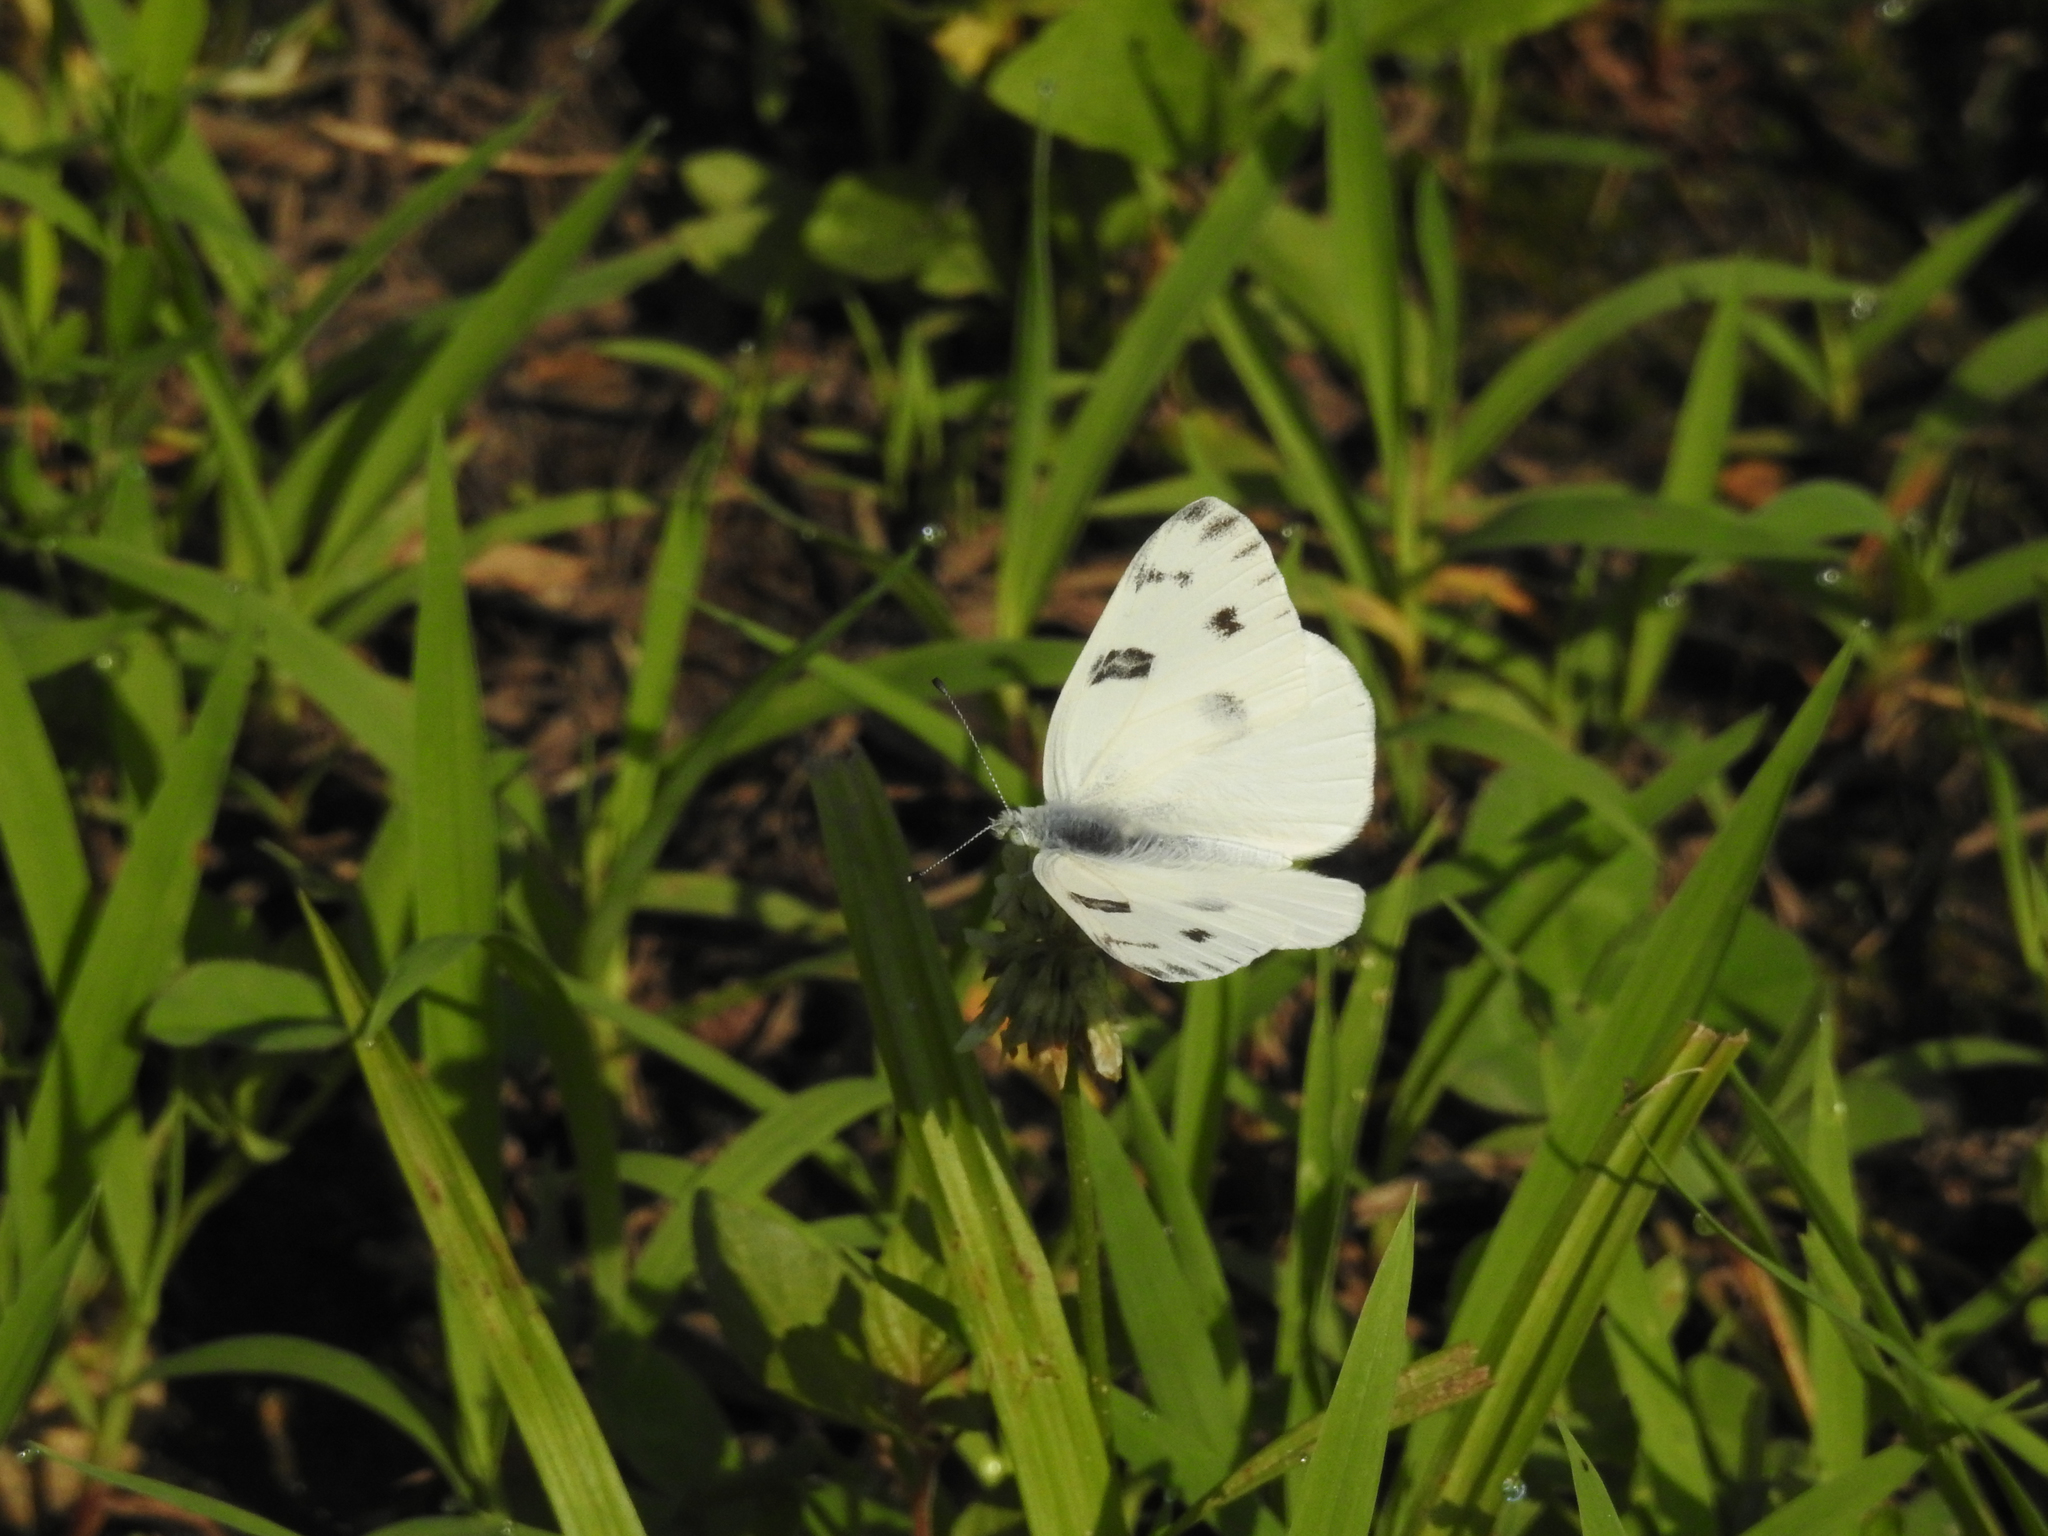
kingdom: Animalia
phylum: Arthropoda
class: Insecta
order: Lepidoptera
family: Pieridae
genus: Pontia
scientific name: Pontia protodice
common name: Checkered white
